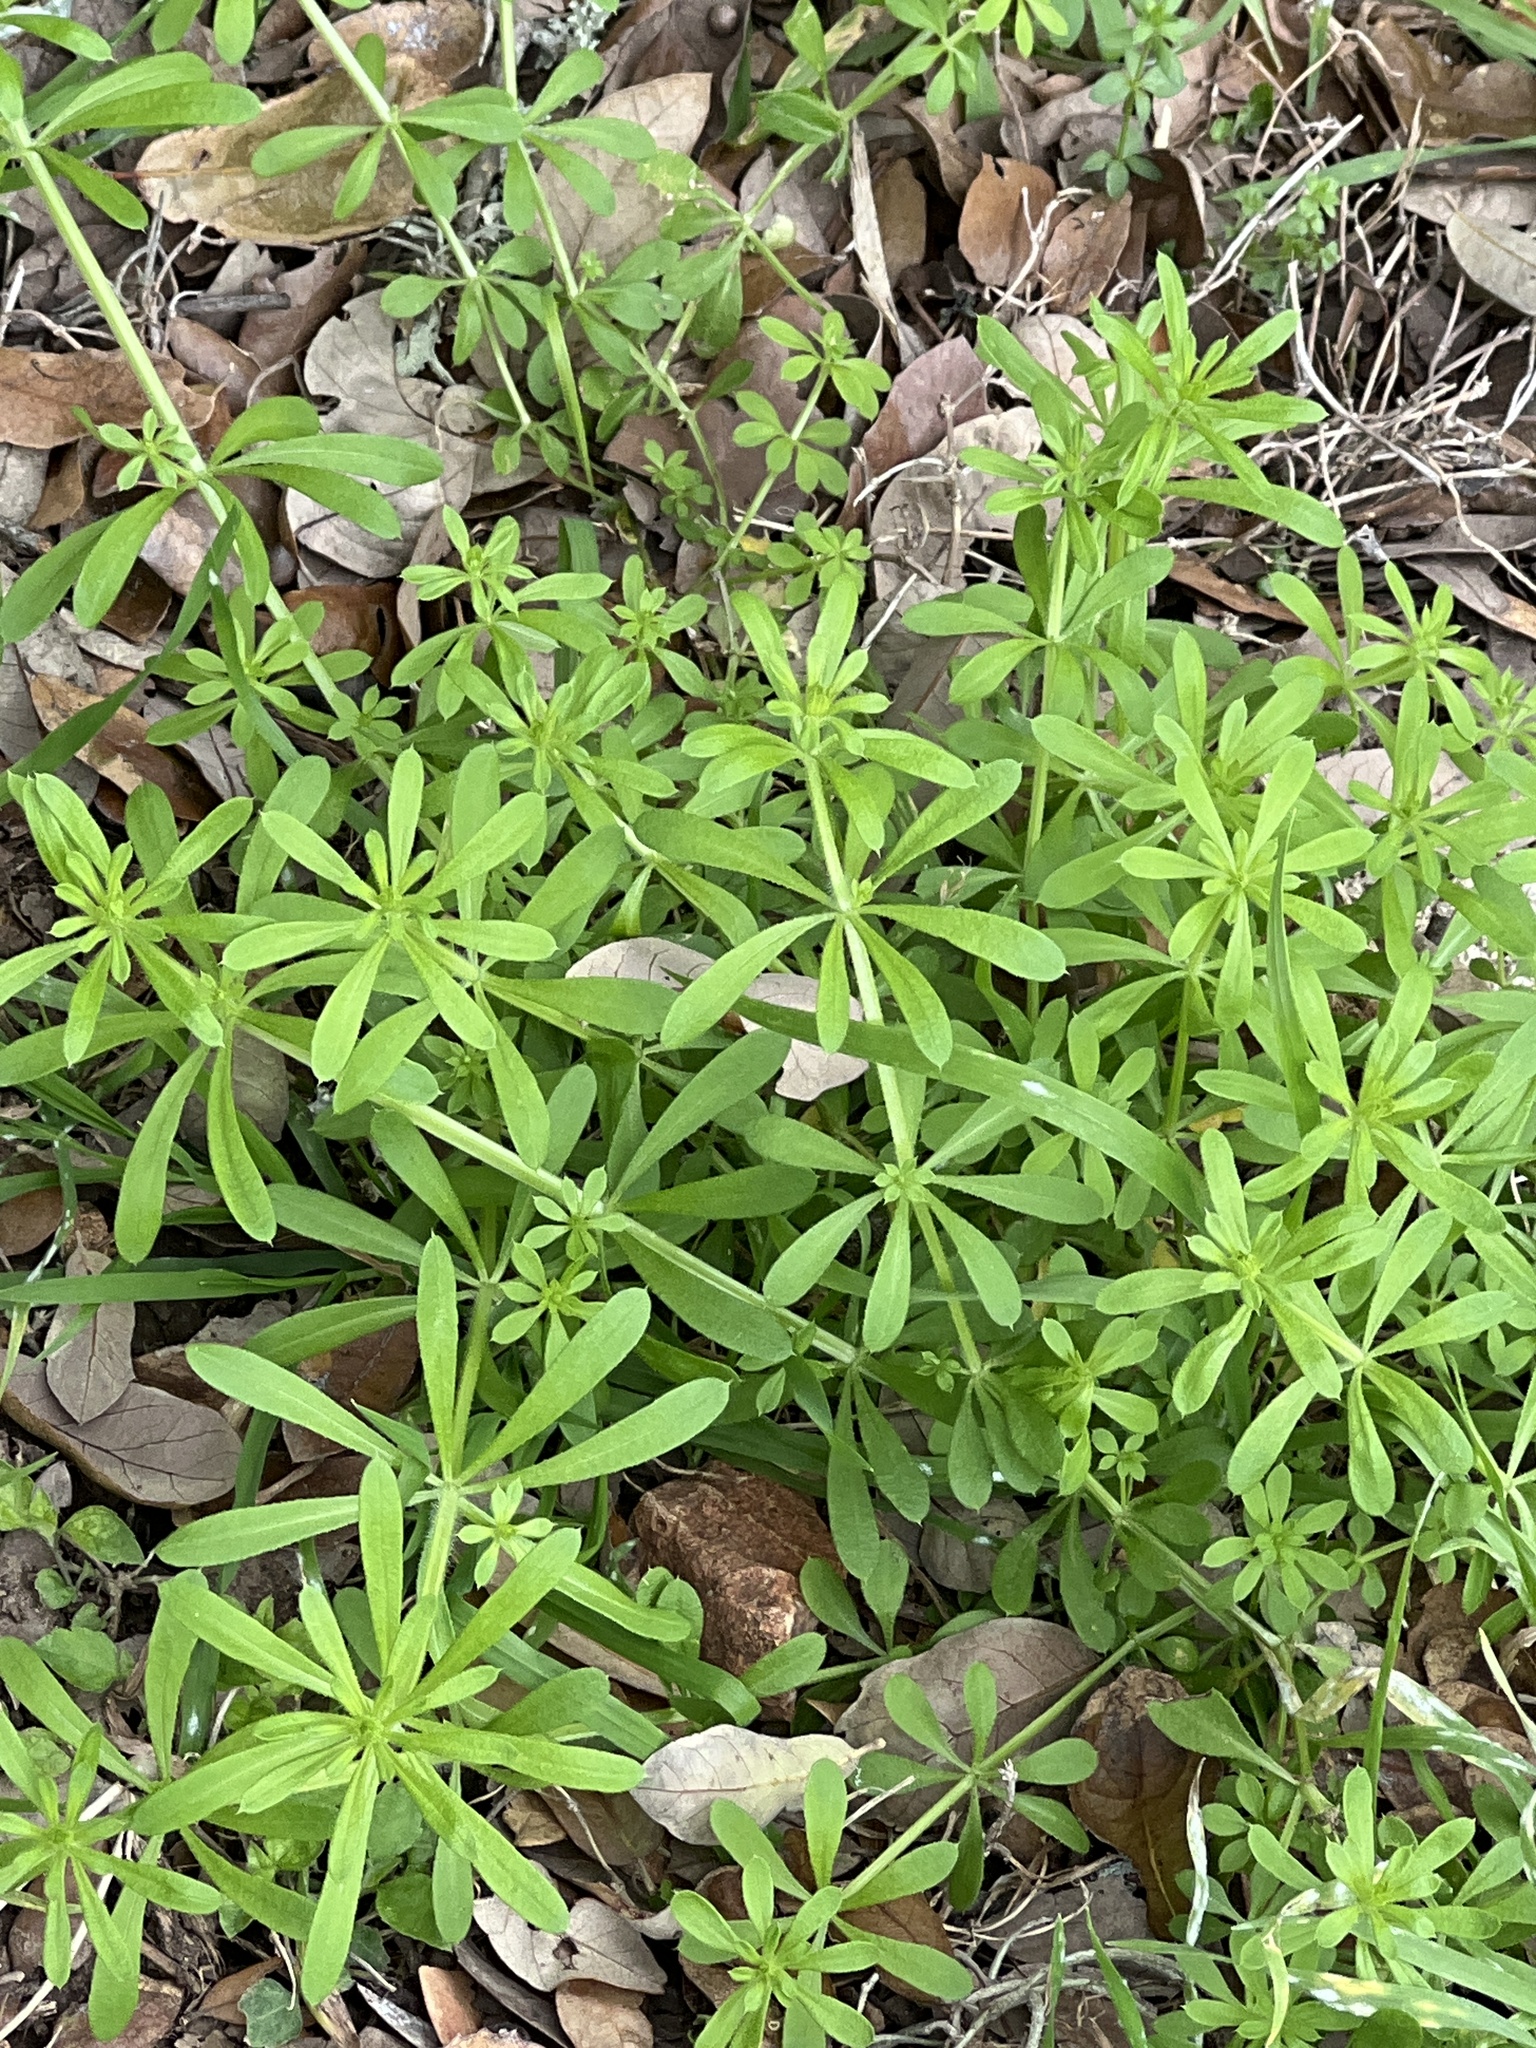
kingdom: Plantae
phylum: Tracheophyta
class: Magnoliopsida
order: Gentianales
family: Rubiaceae
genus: Galium
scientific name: Galium aparine
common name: Cleavers
